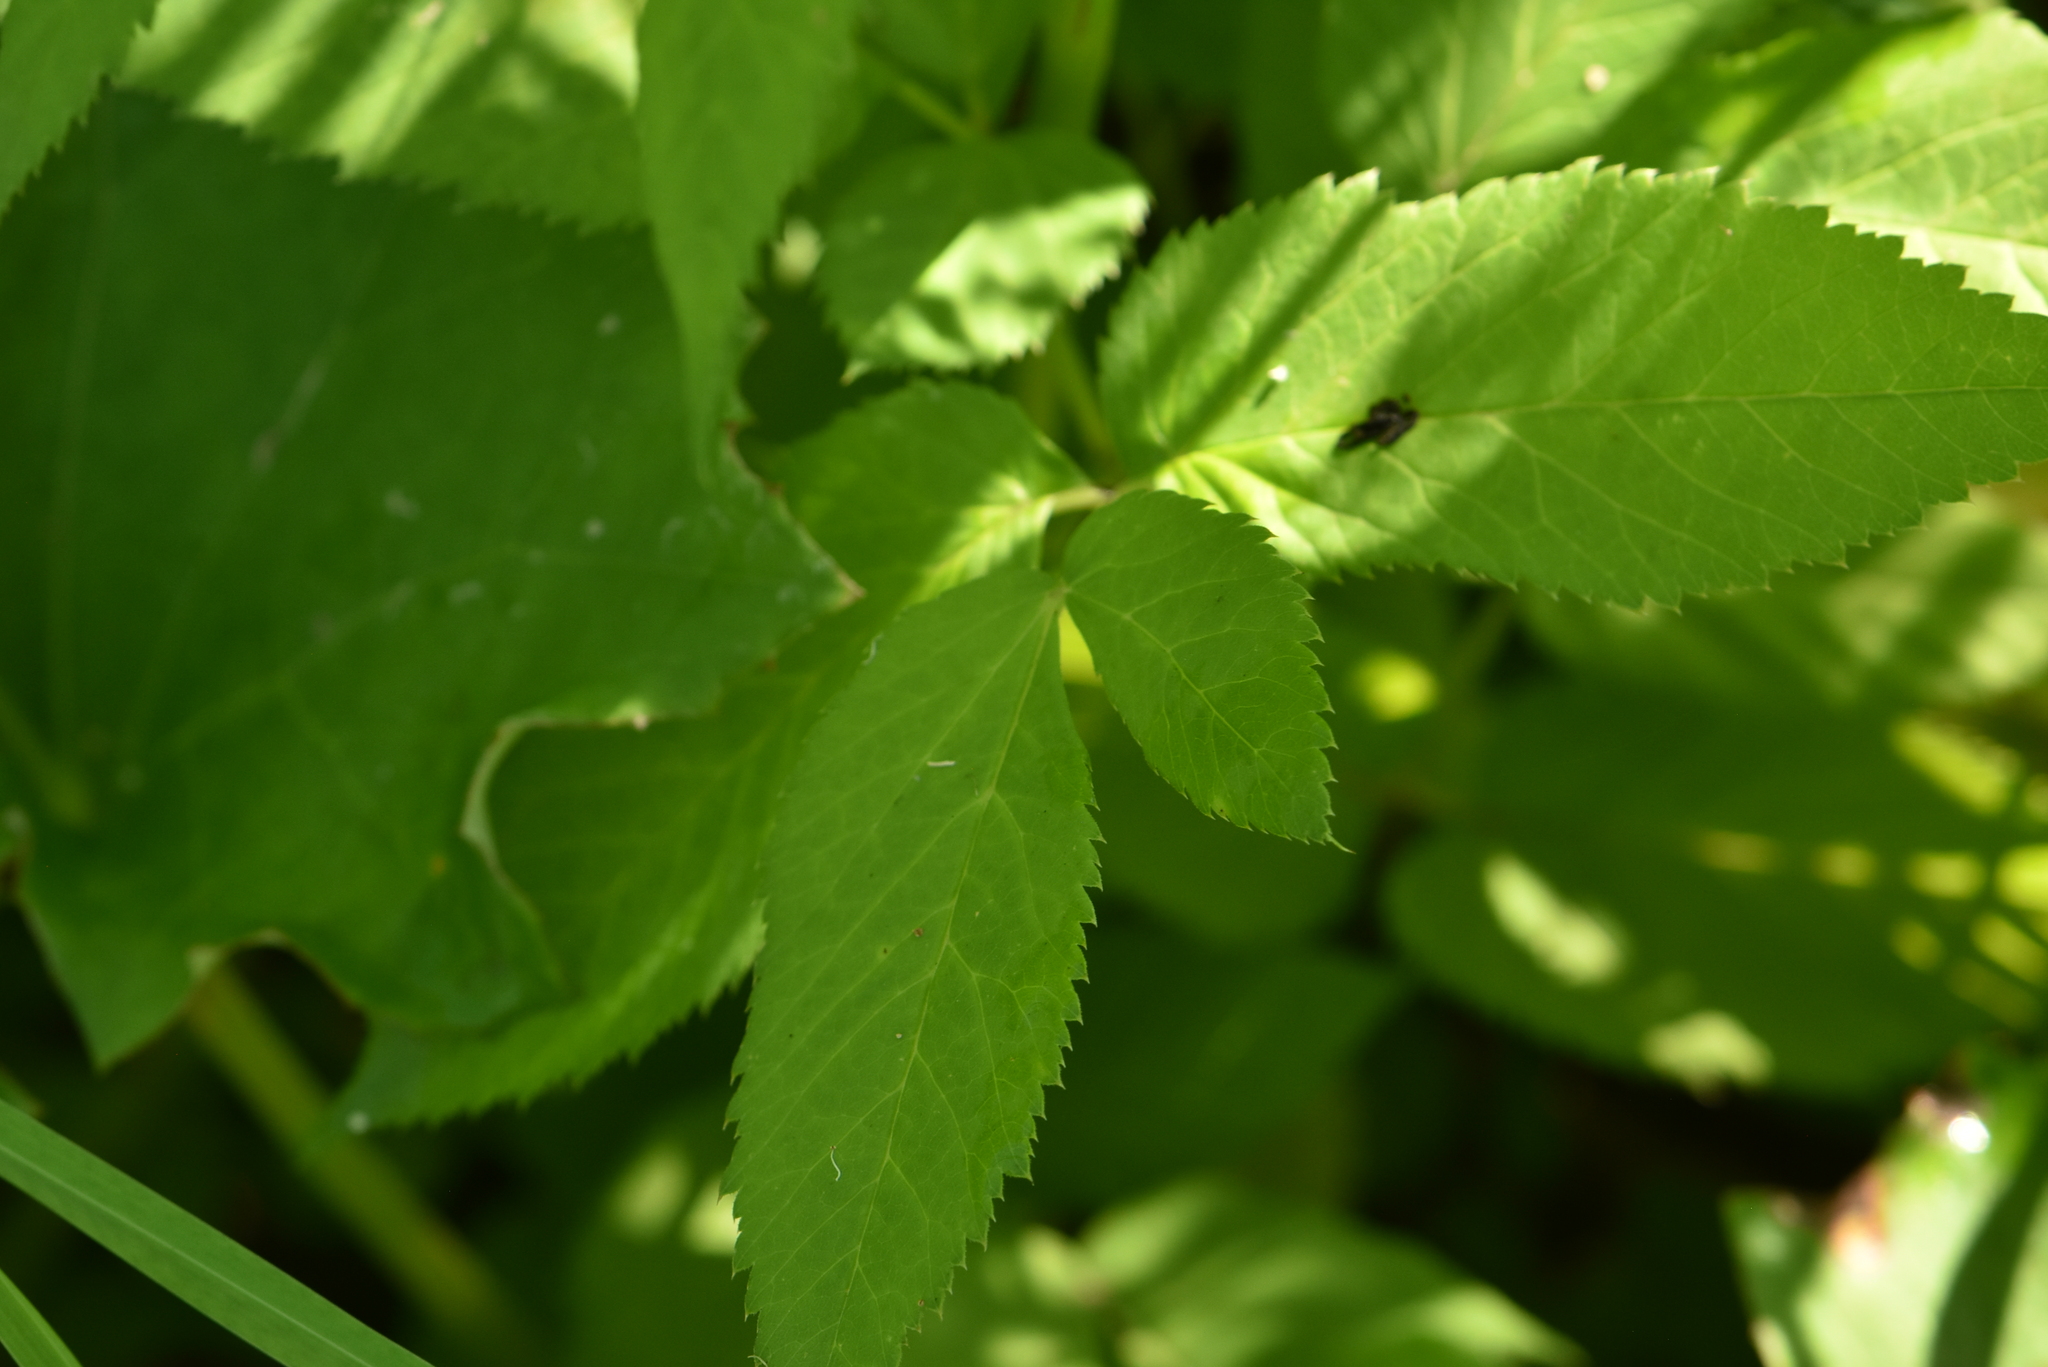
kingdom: Plantae
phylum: Tracheophyta
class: Magnoliopsida
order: Apiales
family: Apiaceae
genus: Aegopodium
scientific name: Aegopodium podagraria
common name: Ground-elder
